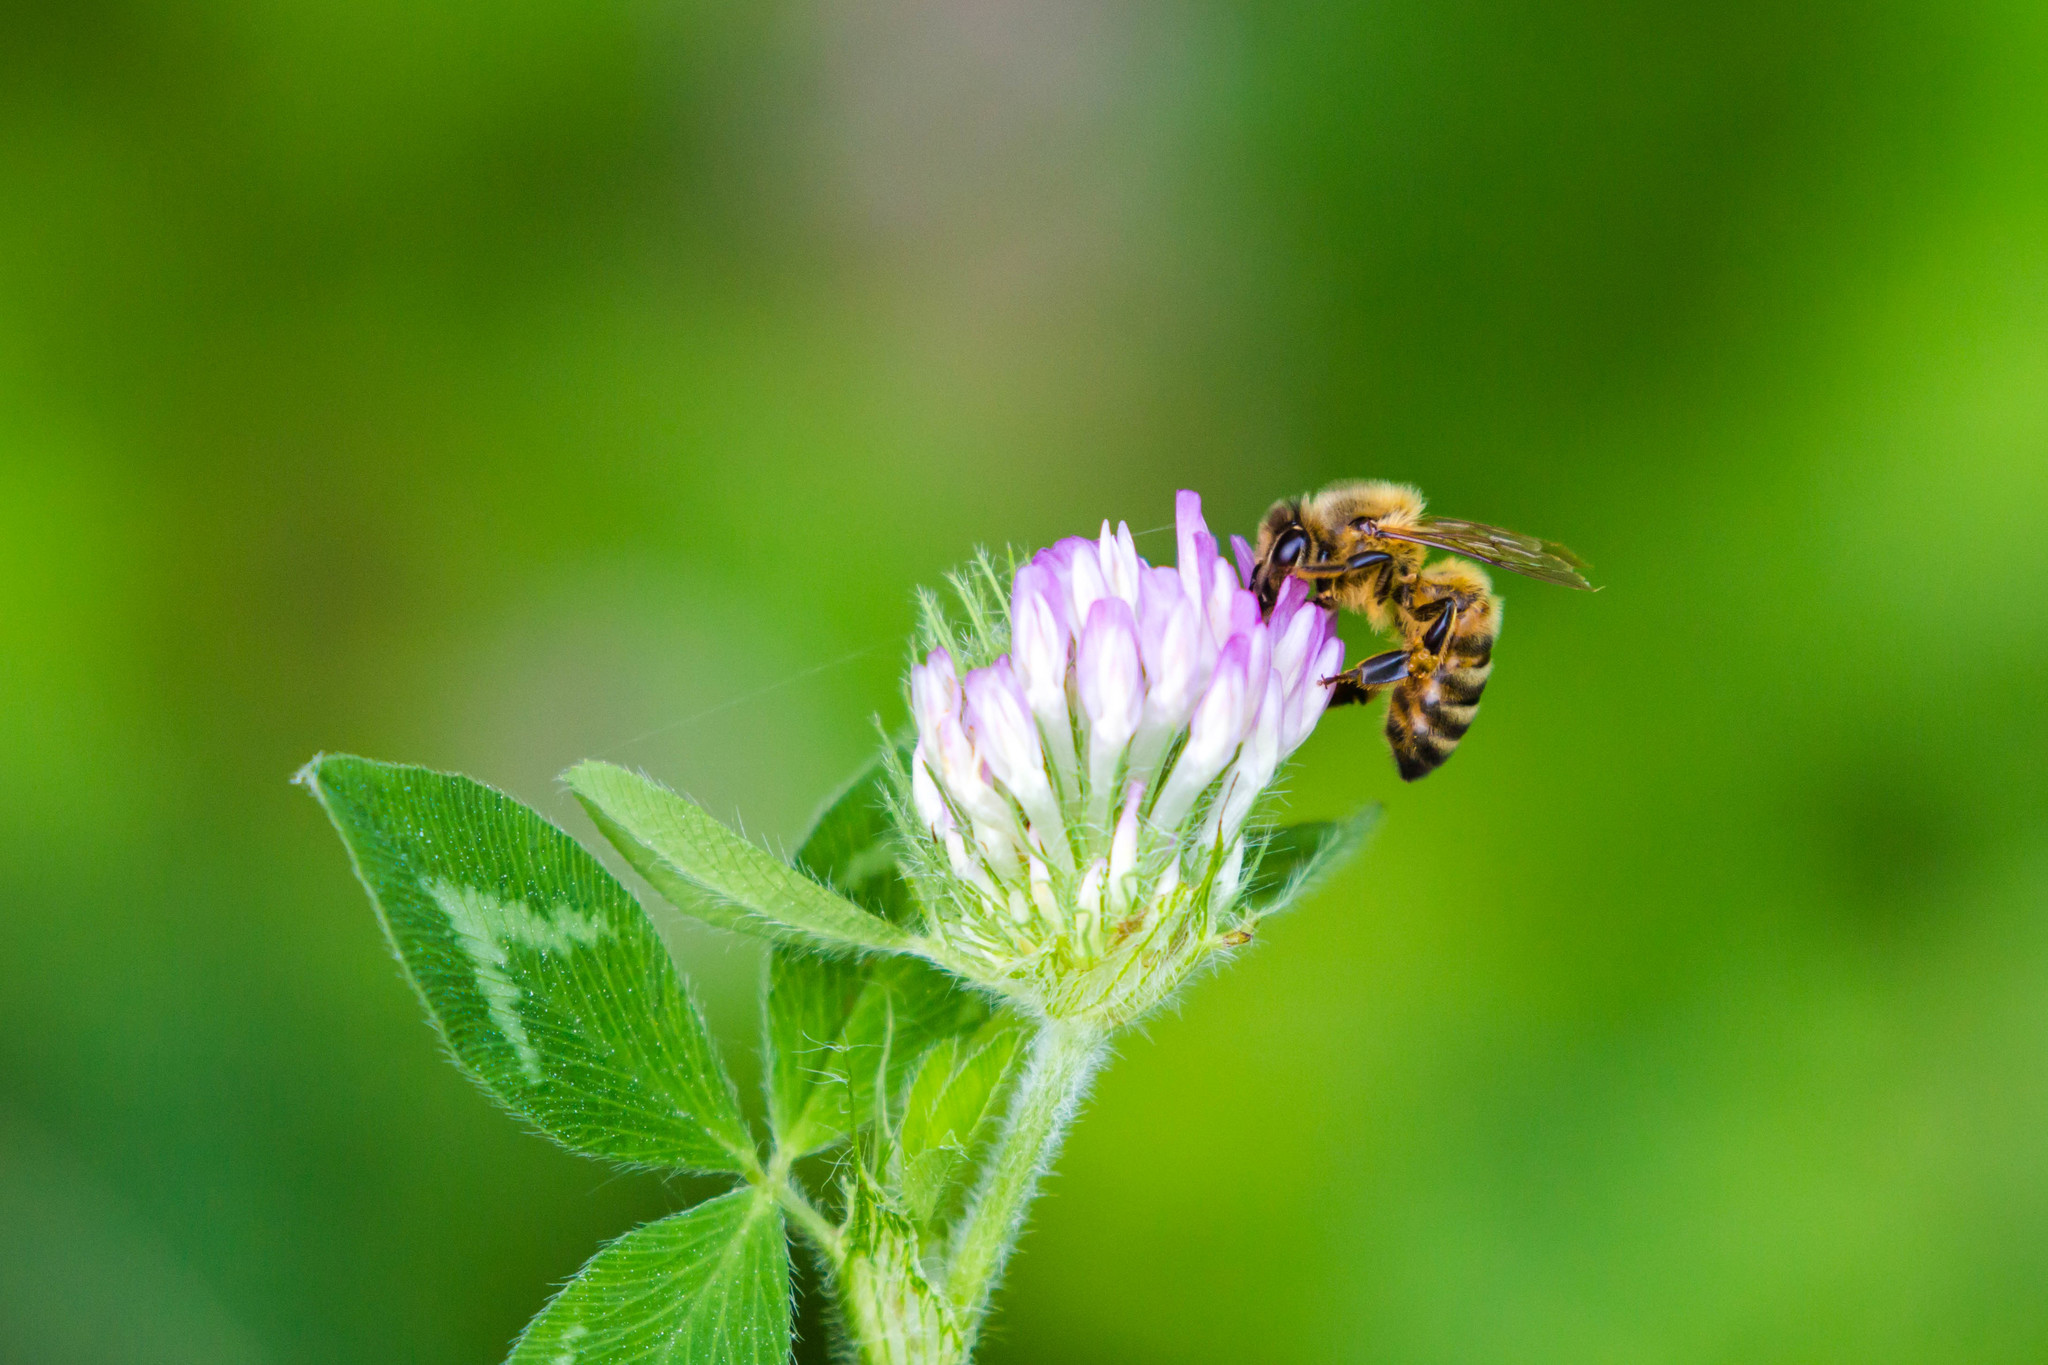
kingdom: Animalia
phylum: Arthropoda
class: Insecta
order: Hymenoptera
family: Apidae
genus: Apis
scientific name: Apis mellifera
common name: Honey bee
